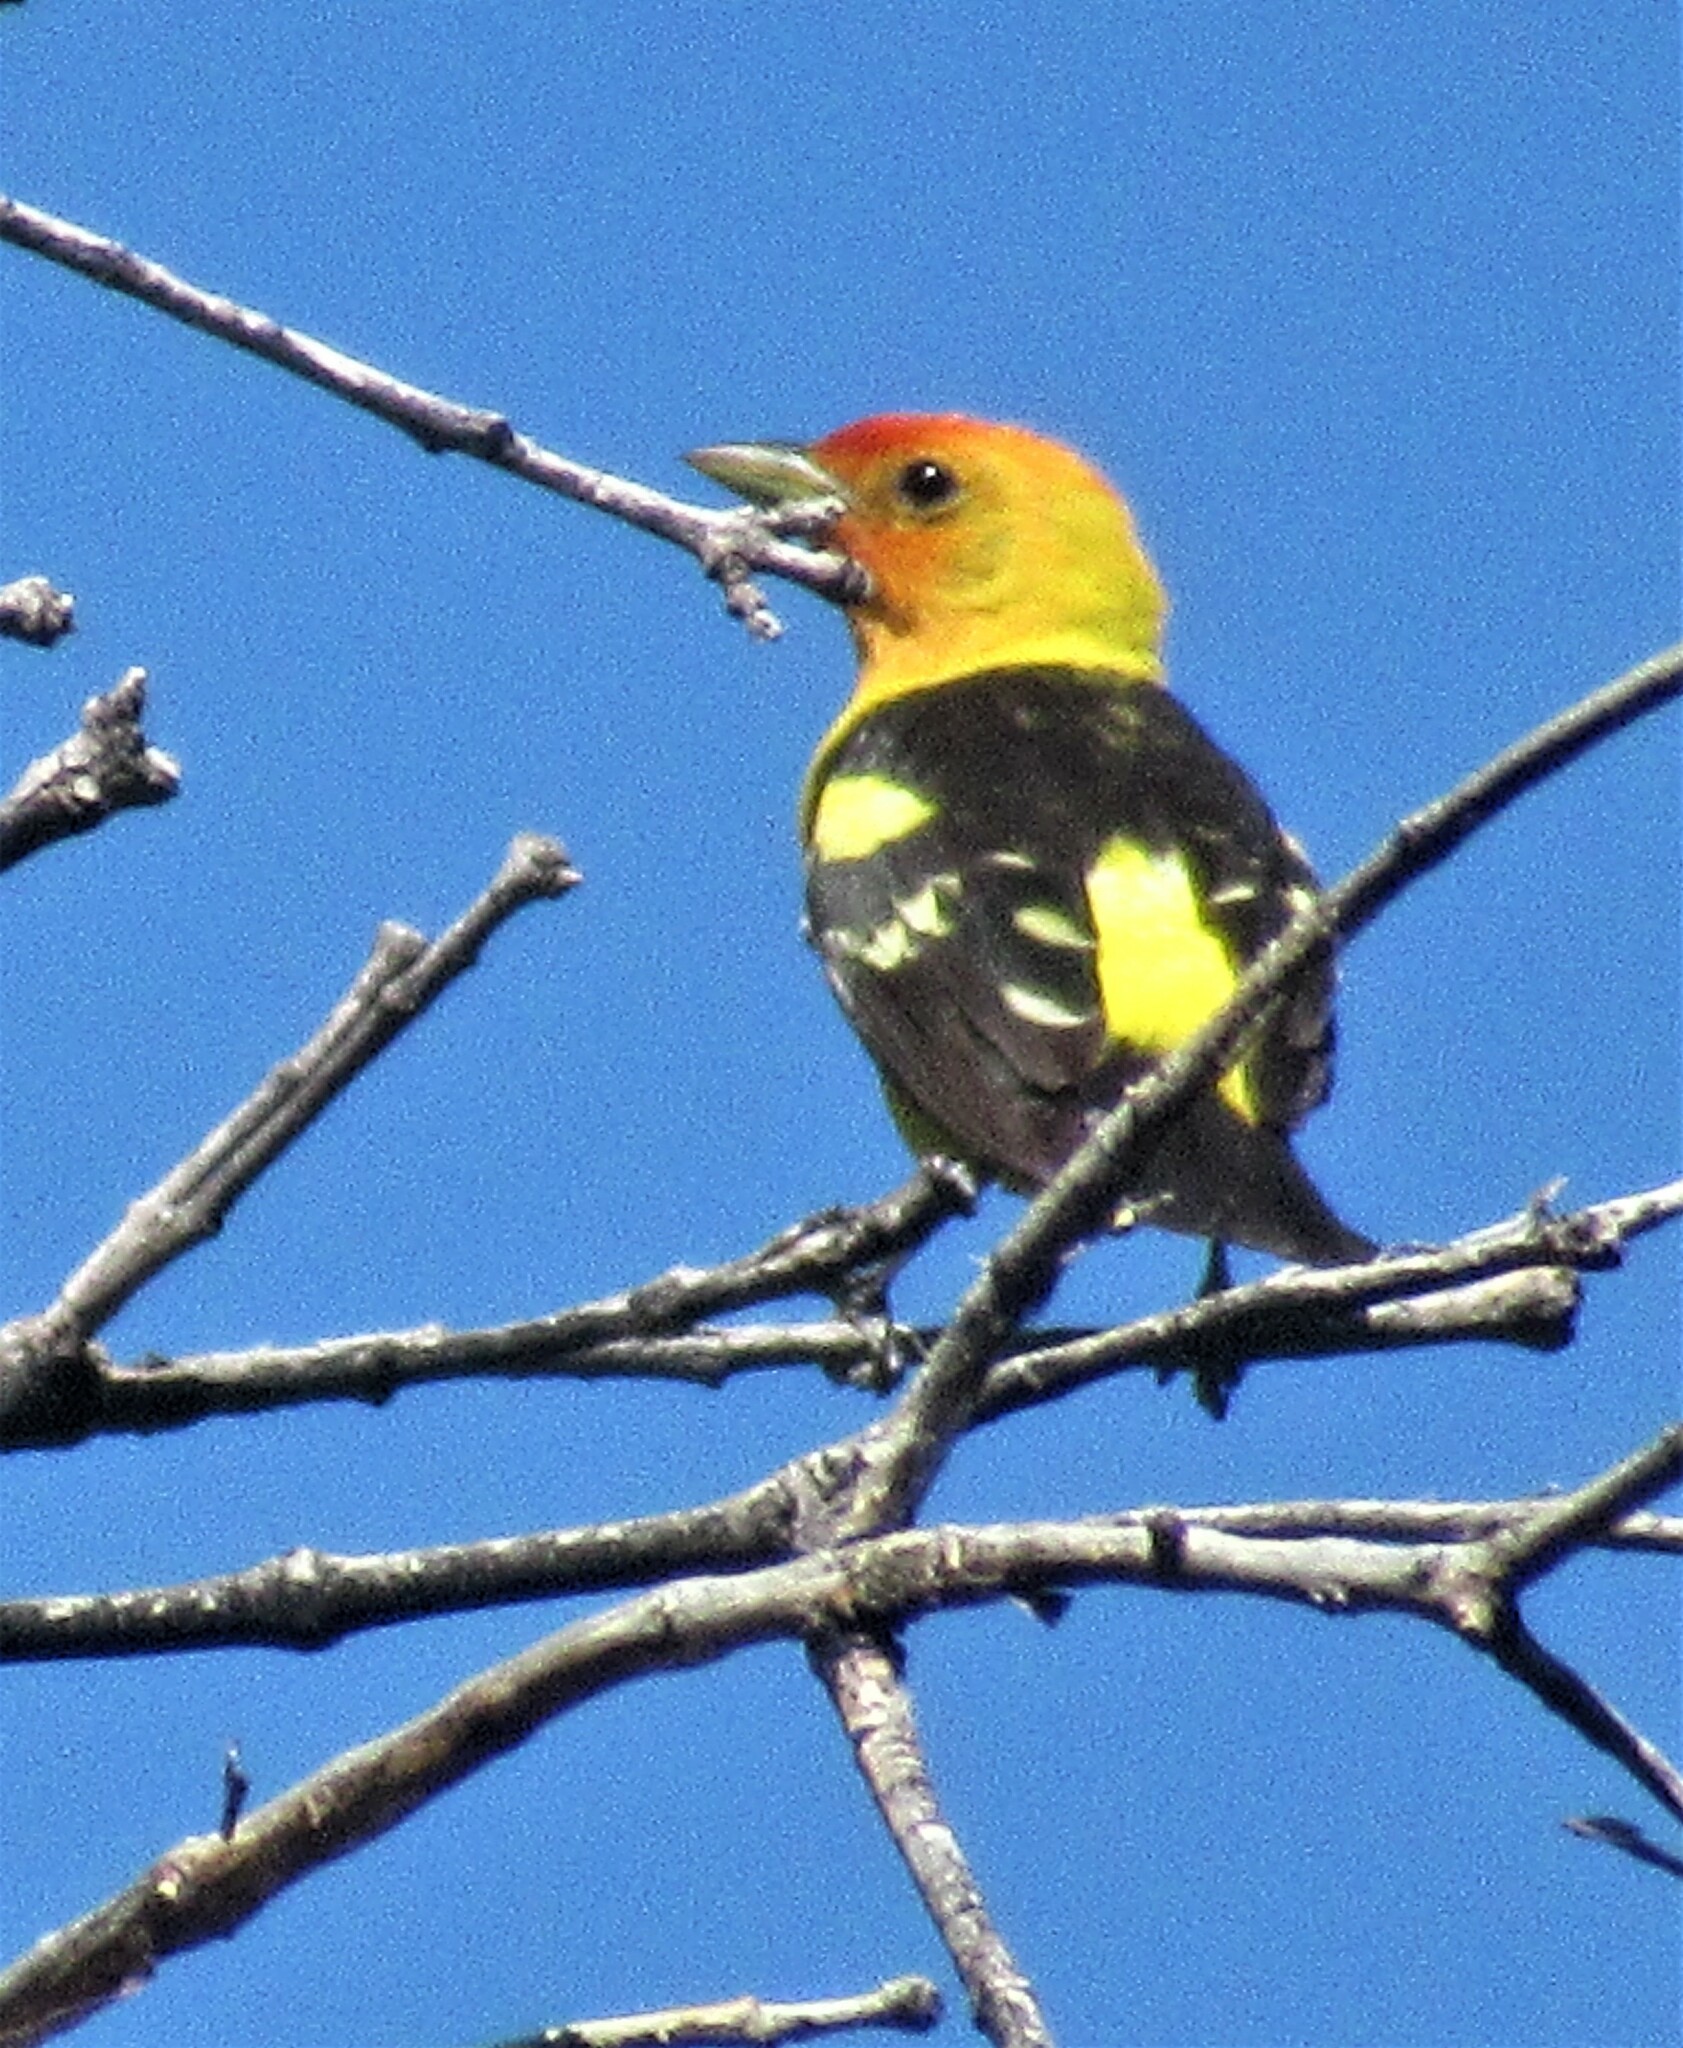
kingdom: Animalia
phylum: Chordata
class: Aves
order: Passeriformes
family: Cardinalidae
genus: Piranga
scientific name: Piranga ludoviciana
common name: Western tanager
